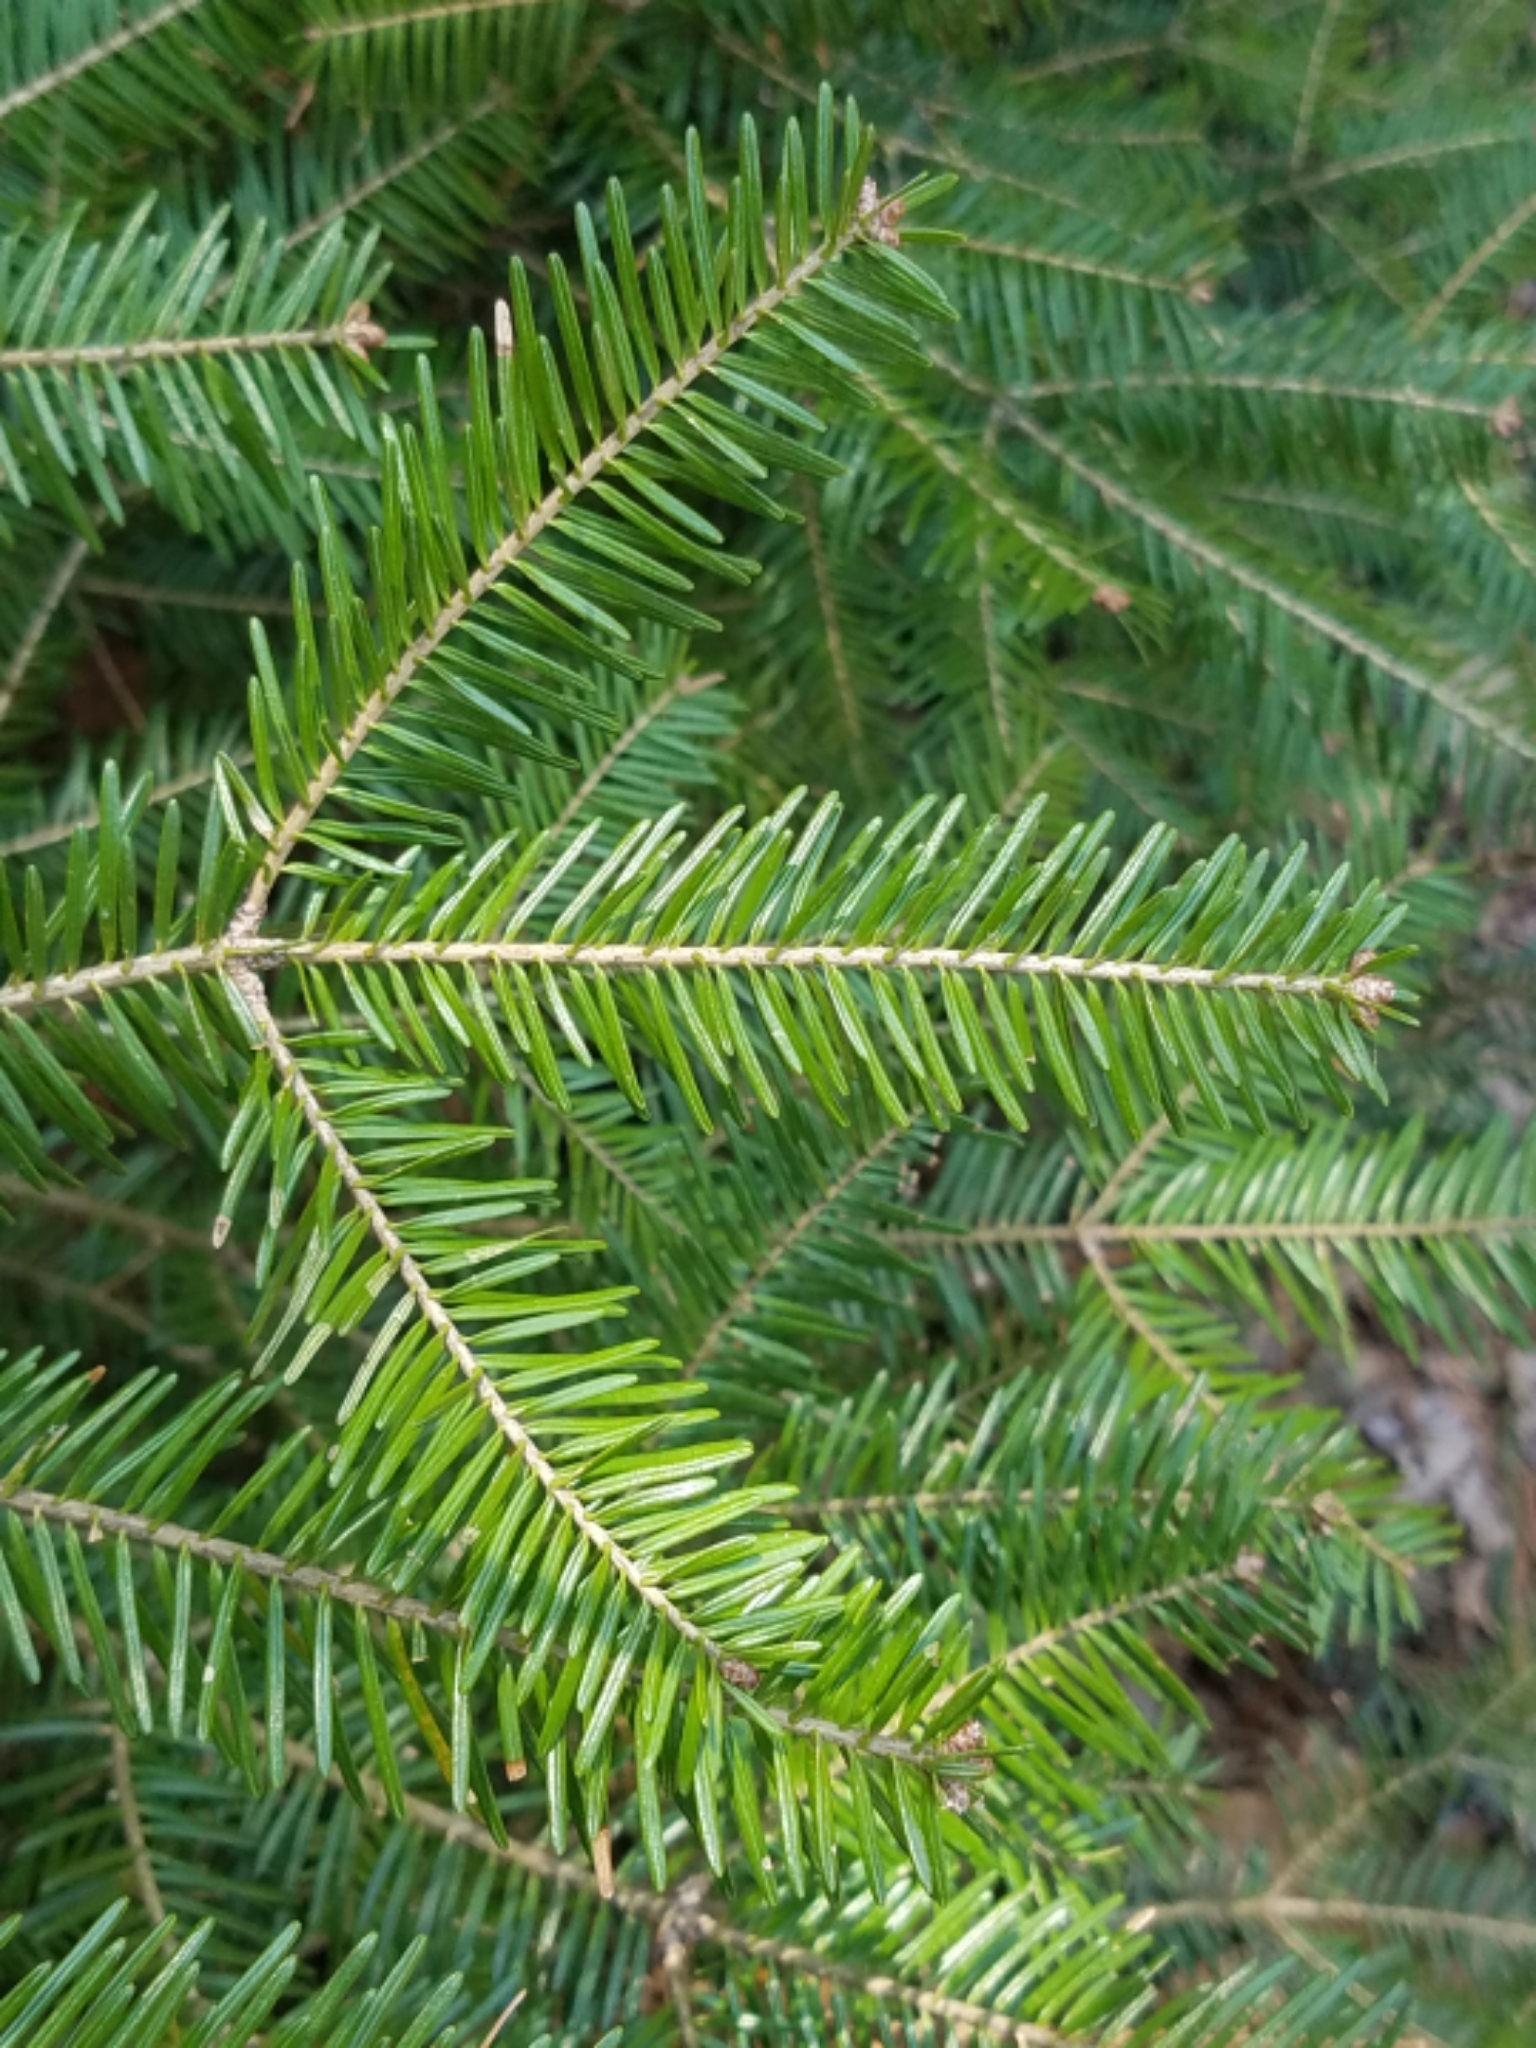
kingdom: Plantae
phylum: Tracheophyta
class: Pinopsida
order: Pinales
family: Pinaceae
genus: Abies
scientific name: Abies balsamea
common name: Balsam fir
